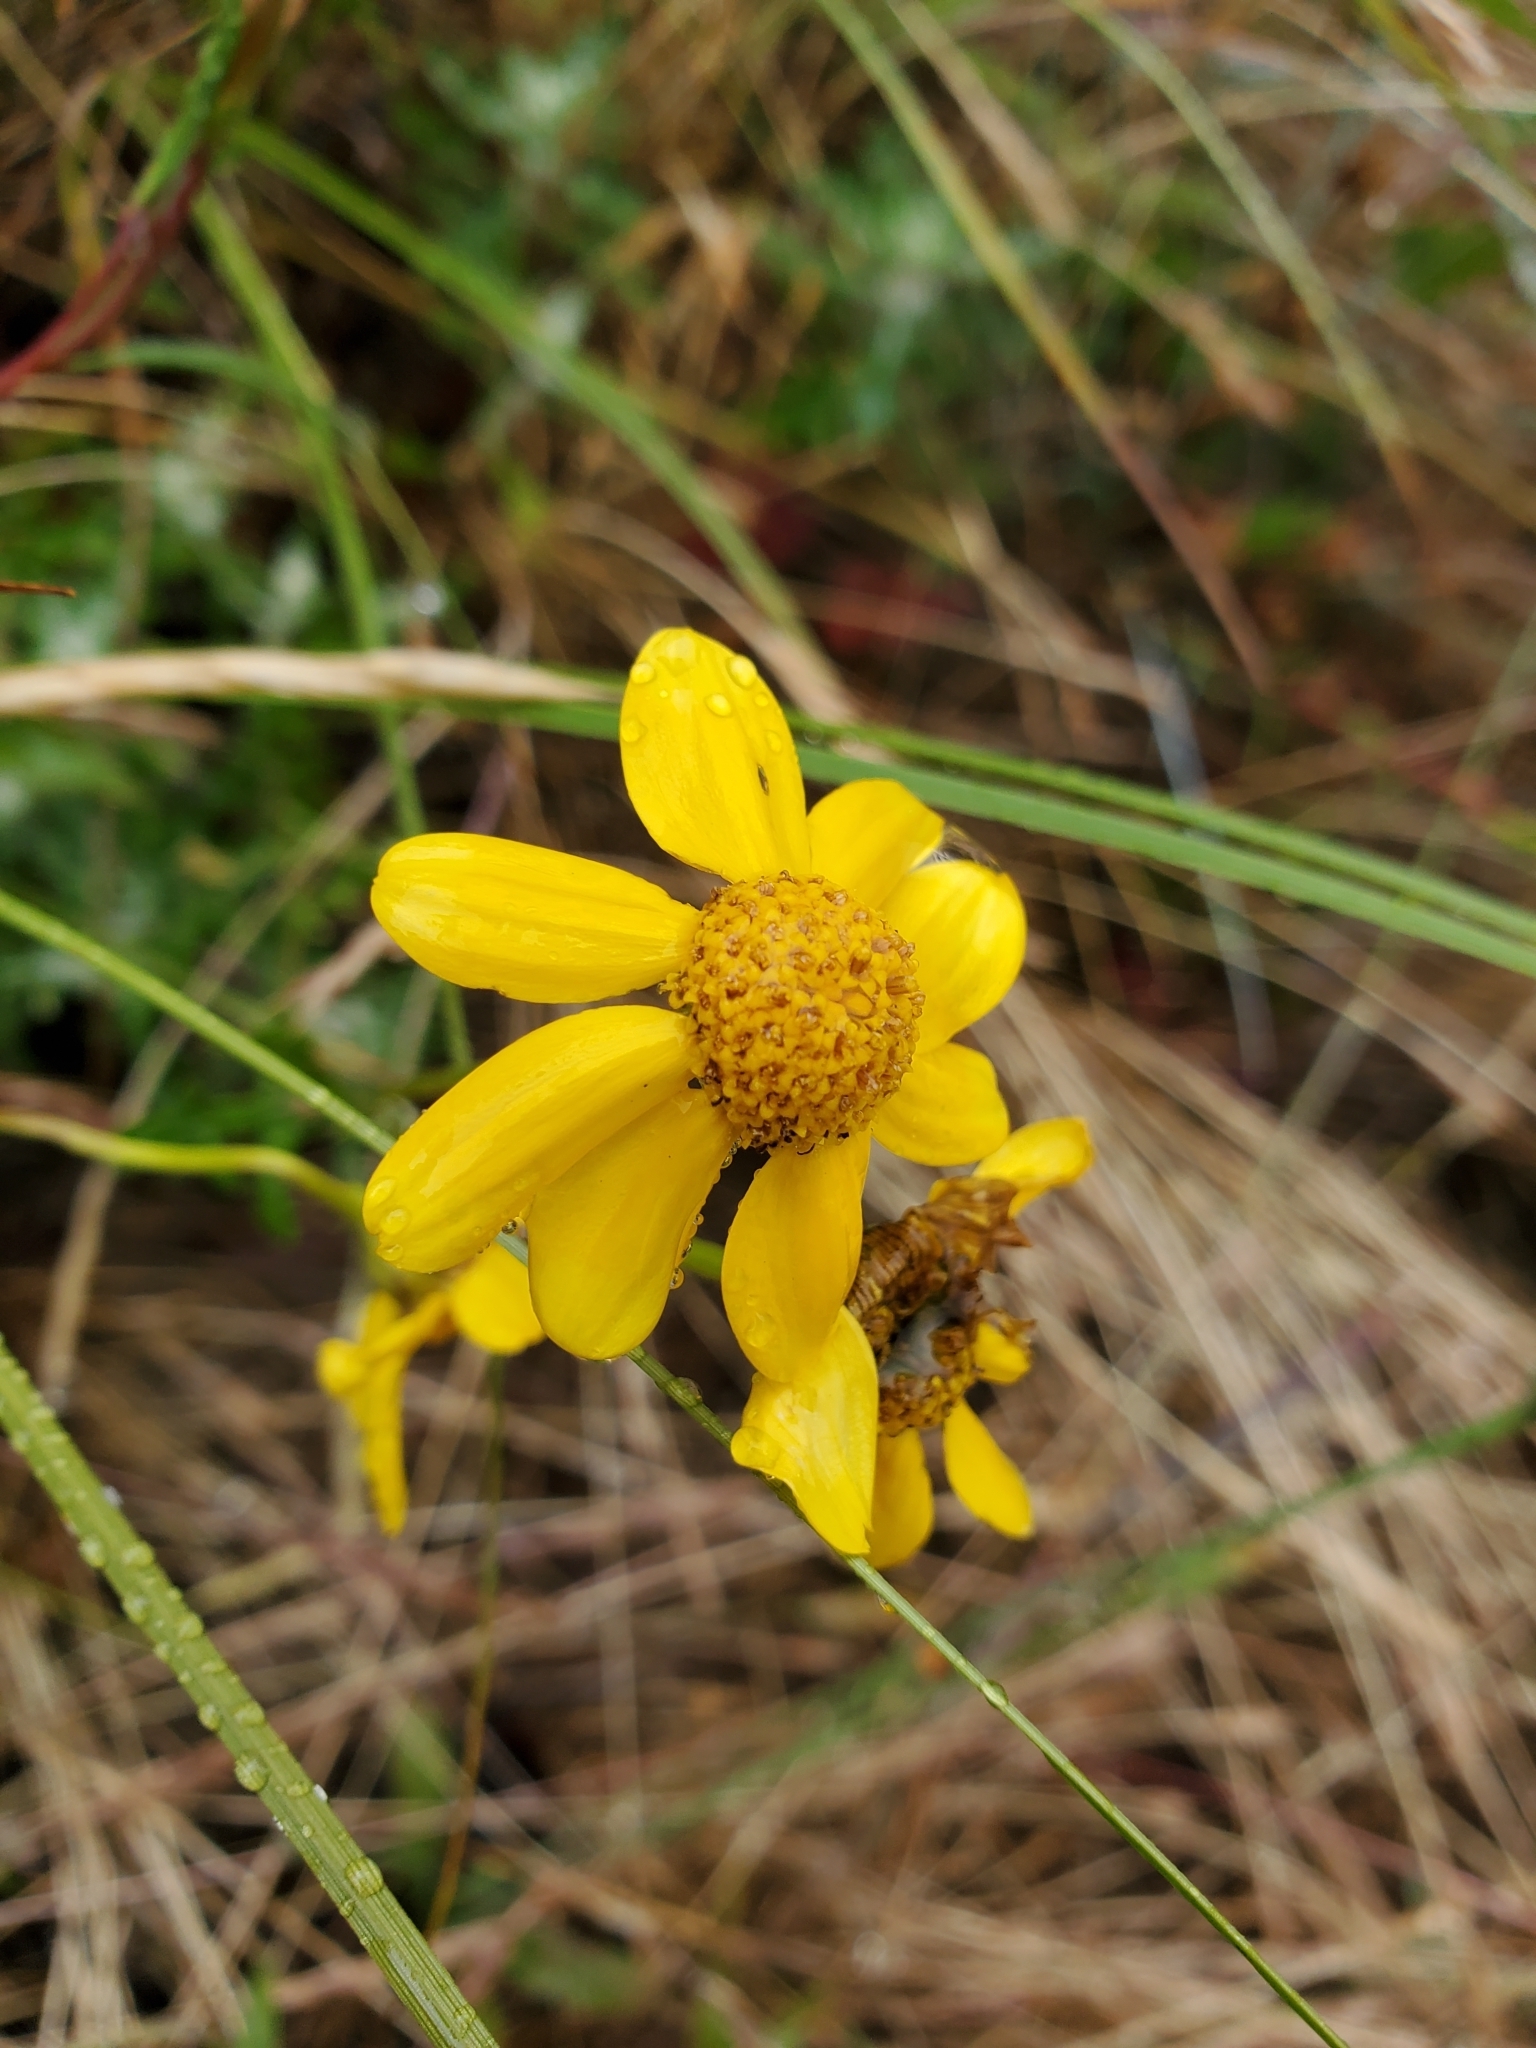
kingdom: Plantae
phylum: Tracheophyta
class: Magnoliopsida
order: Asterales
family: Asteraceae
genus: Eriophyllum
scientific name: Eriophyllum lanatum
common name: Common woolly-sunflower
